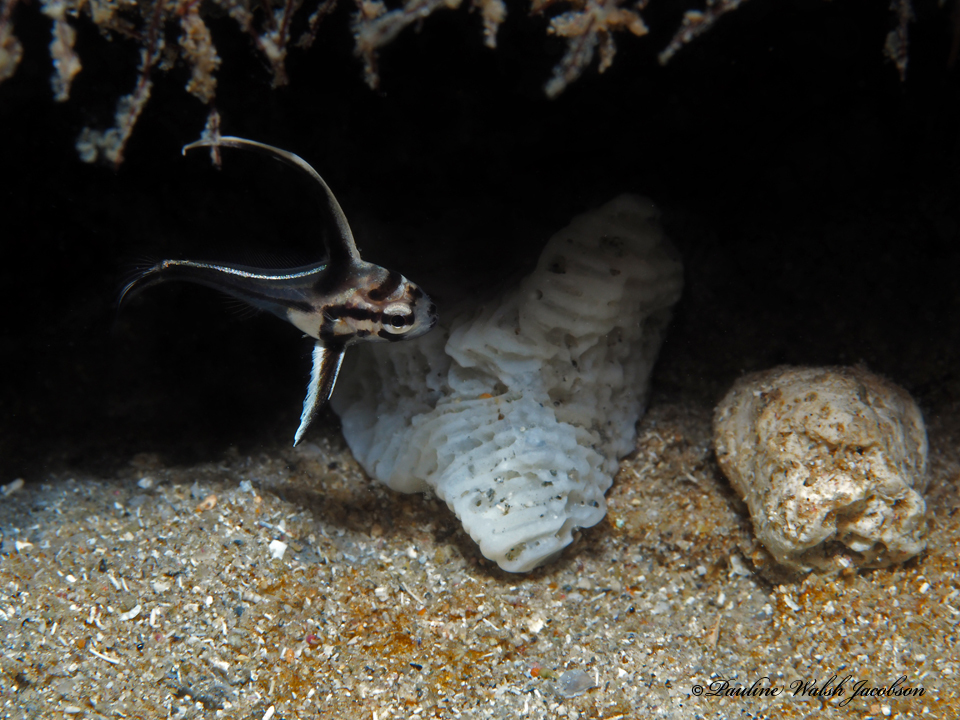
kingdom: Animalia
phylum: Chordata
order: Perciformes
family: Sciaenidae
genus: Pareques
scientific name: Pareques acuminatus
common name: High-hat
